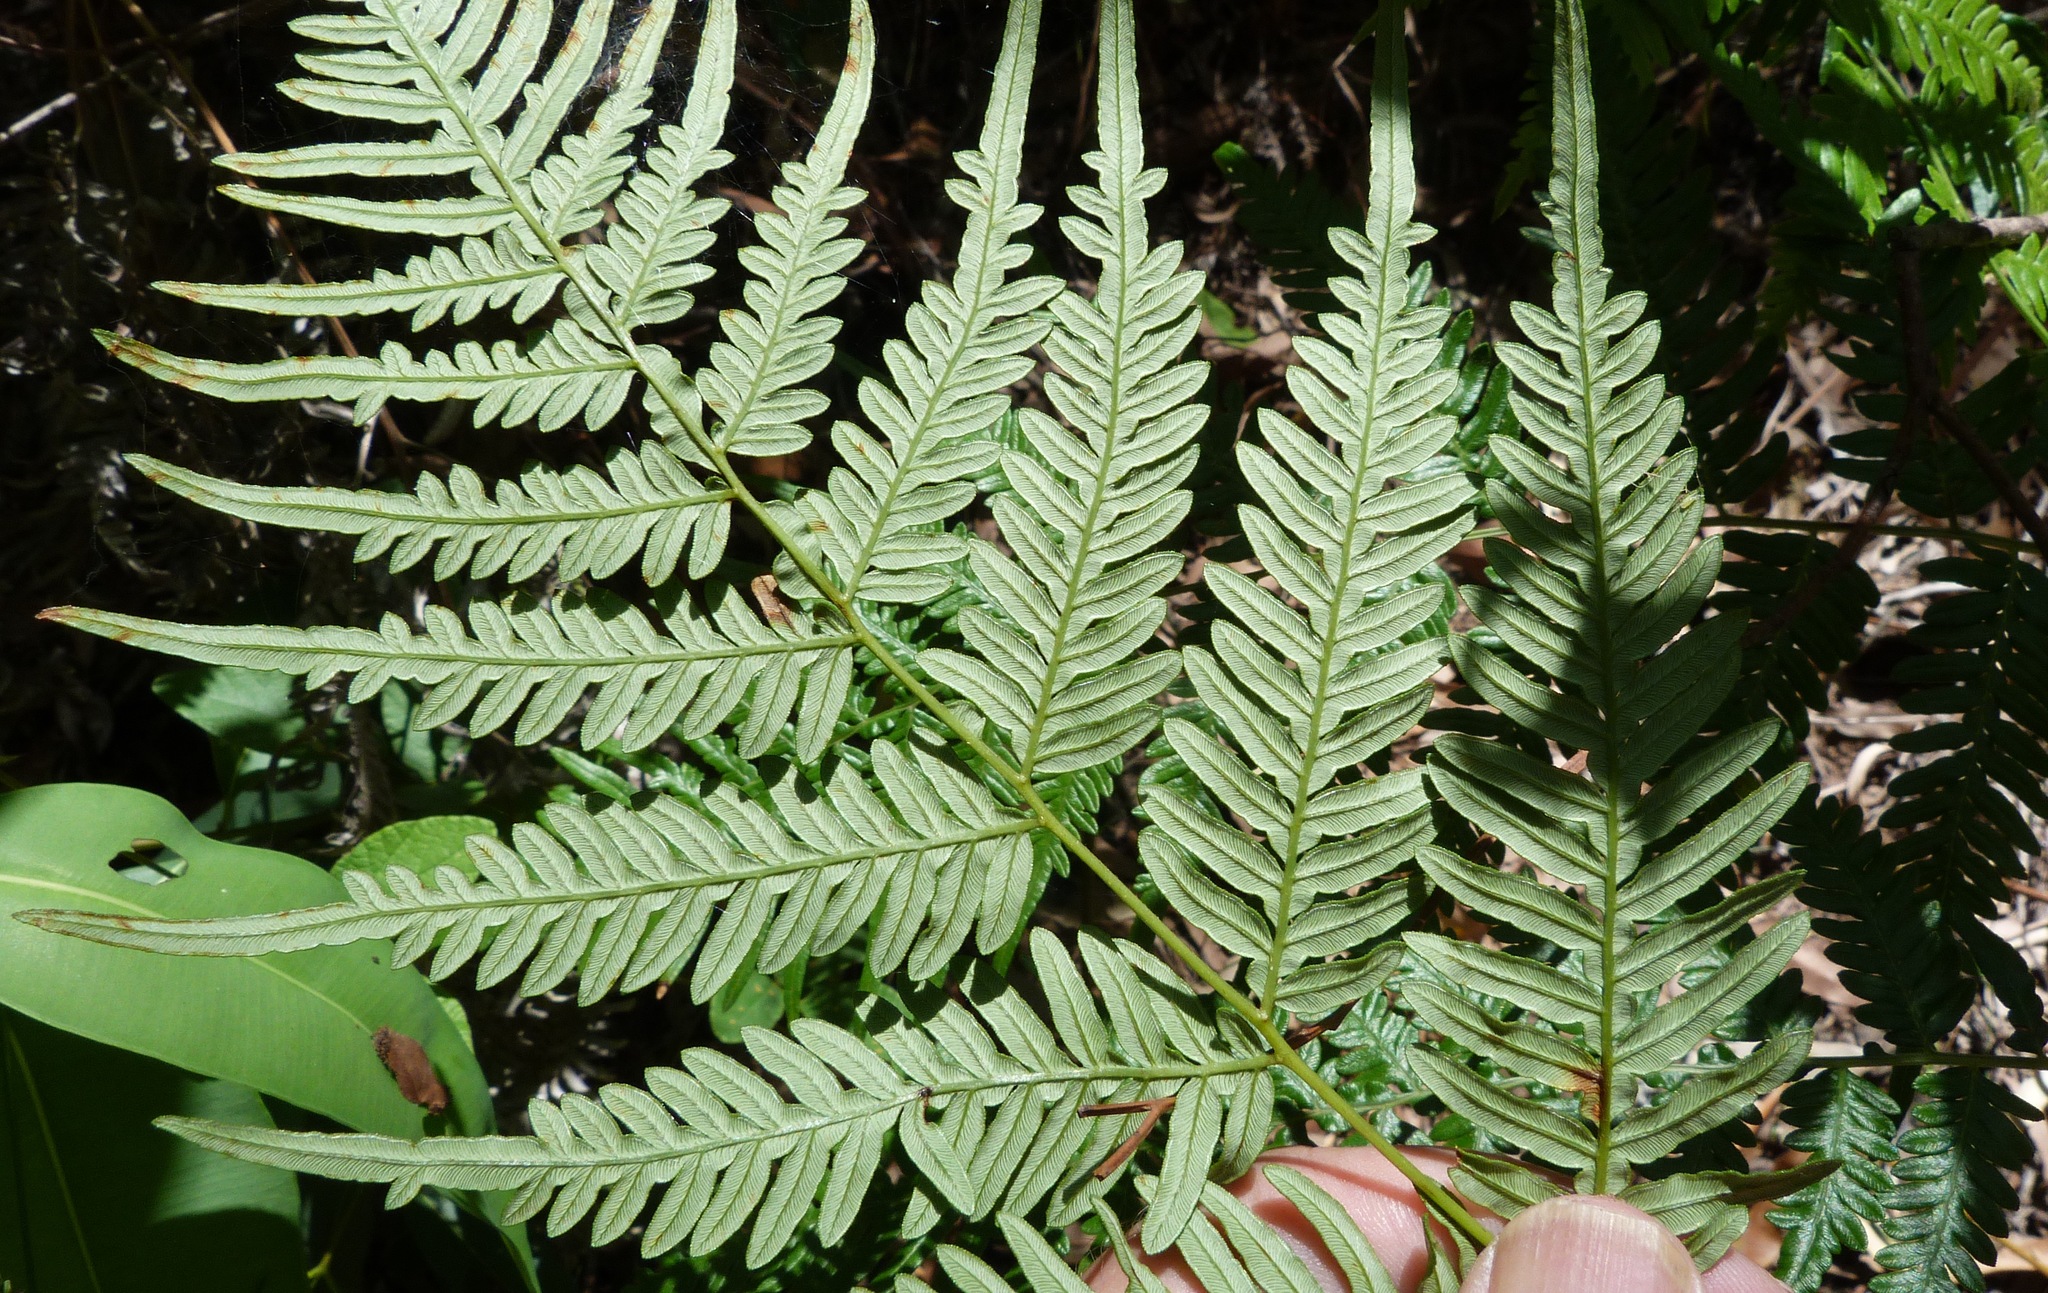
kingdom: Plantae
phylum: Tracheophyta
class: Polypodiopsida
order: Polypodiales
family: Dennstaedtiaceae
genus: Pteridium
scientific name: Pteridium esculentum
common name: Bracken fern
